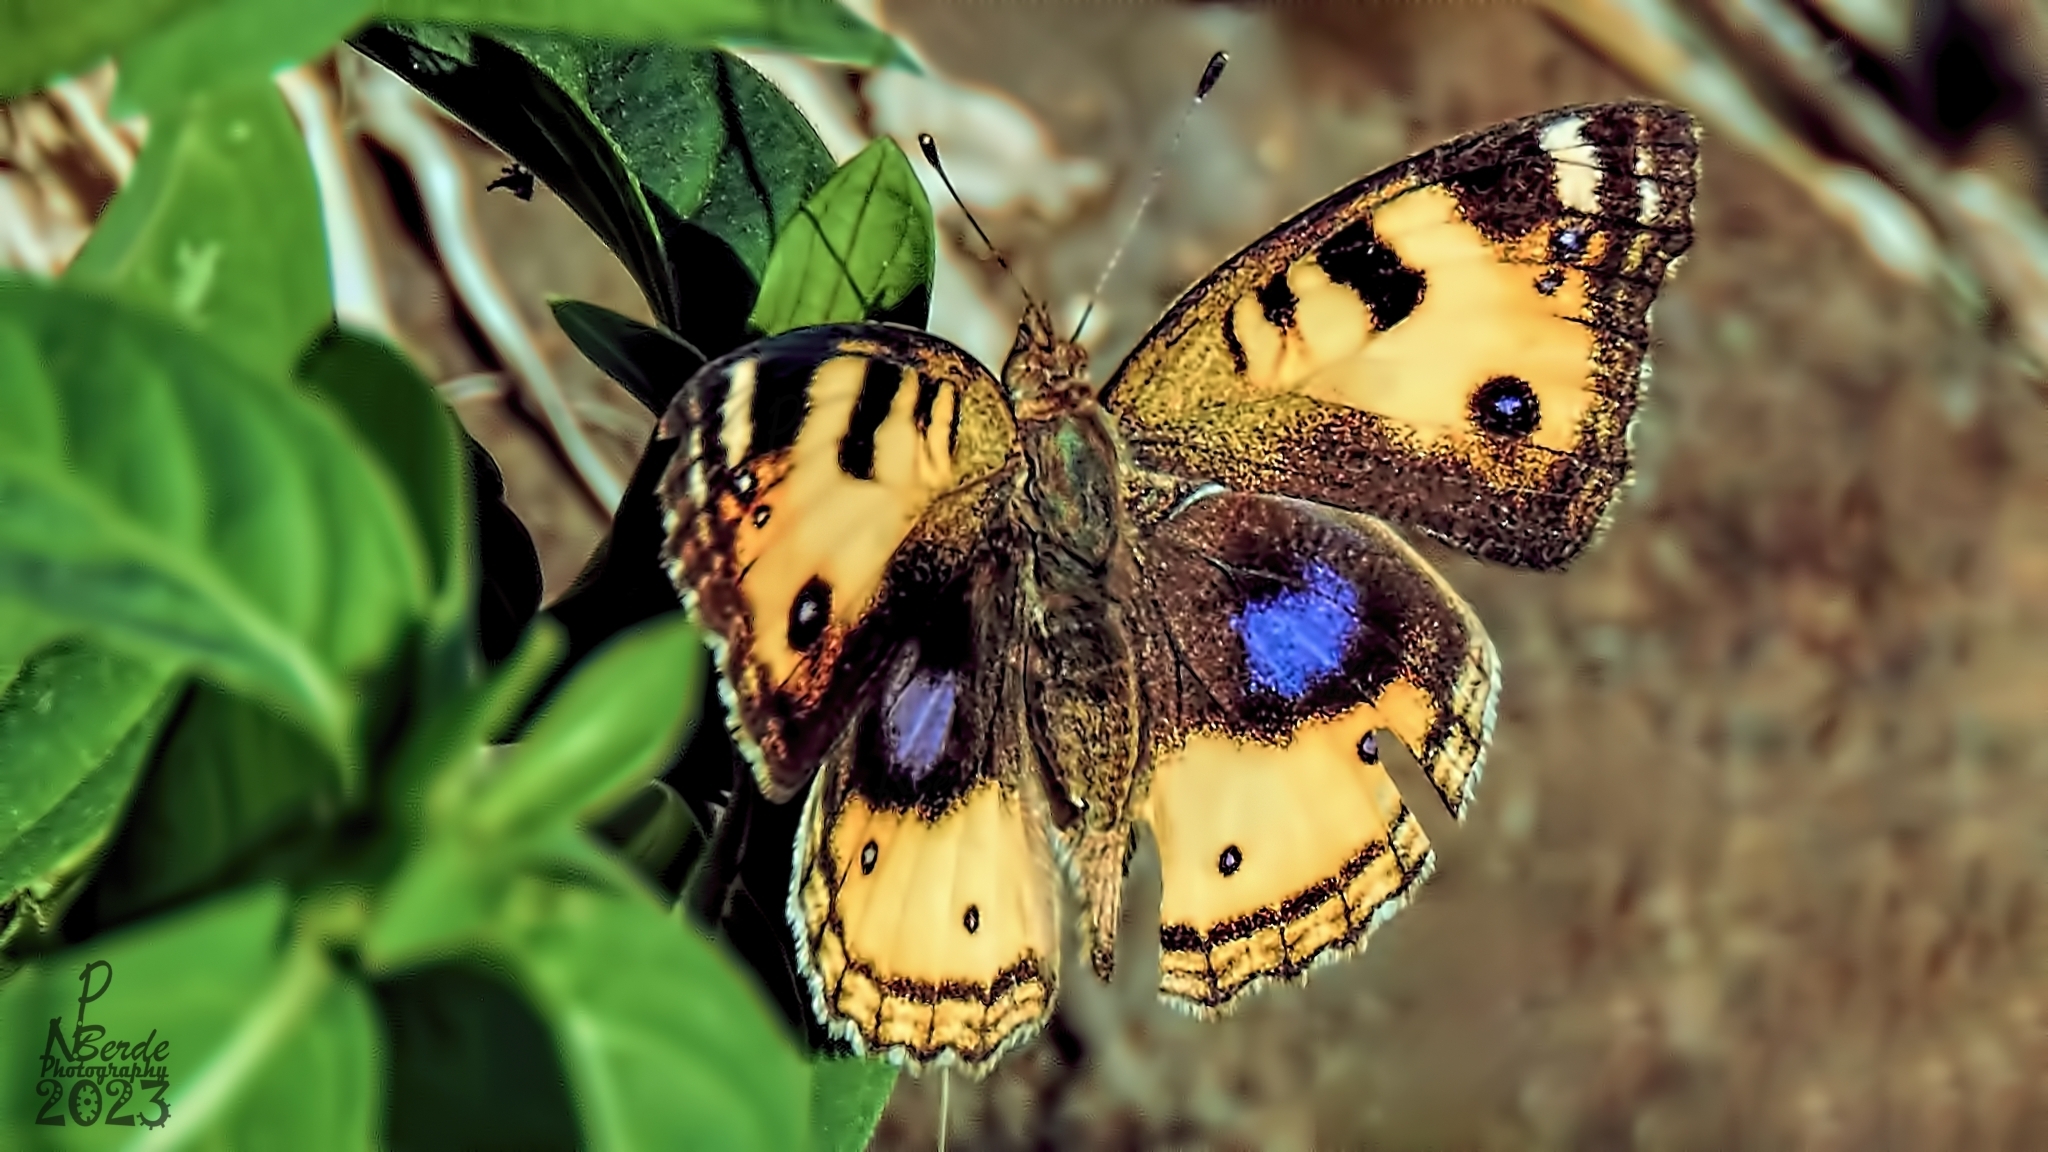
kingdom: Animalia
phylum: Arthropoda
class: Insecta
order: Lepidoptera
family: Nymphalidae
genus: Junonia
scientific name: Junonia hierta
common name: Yellow pansy
